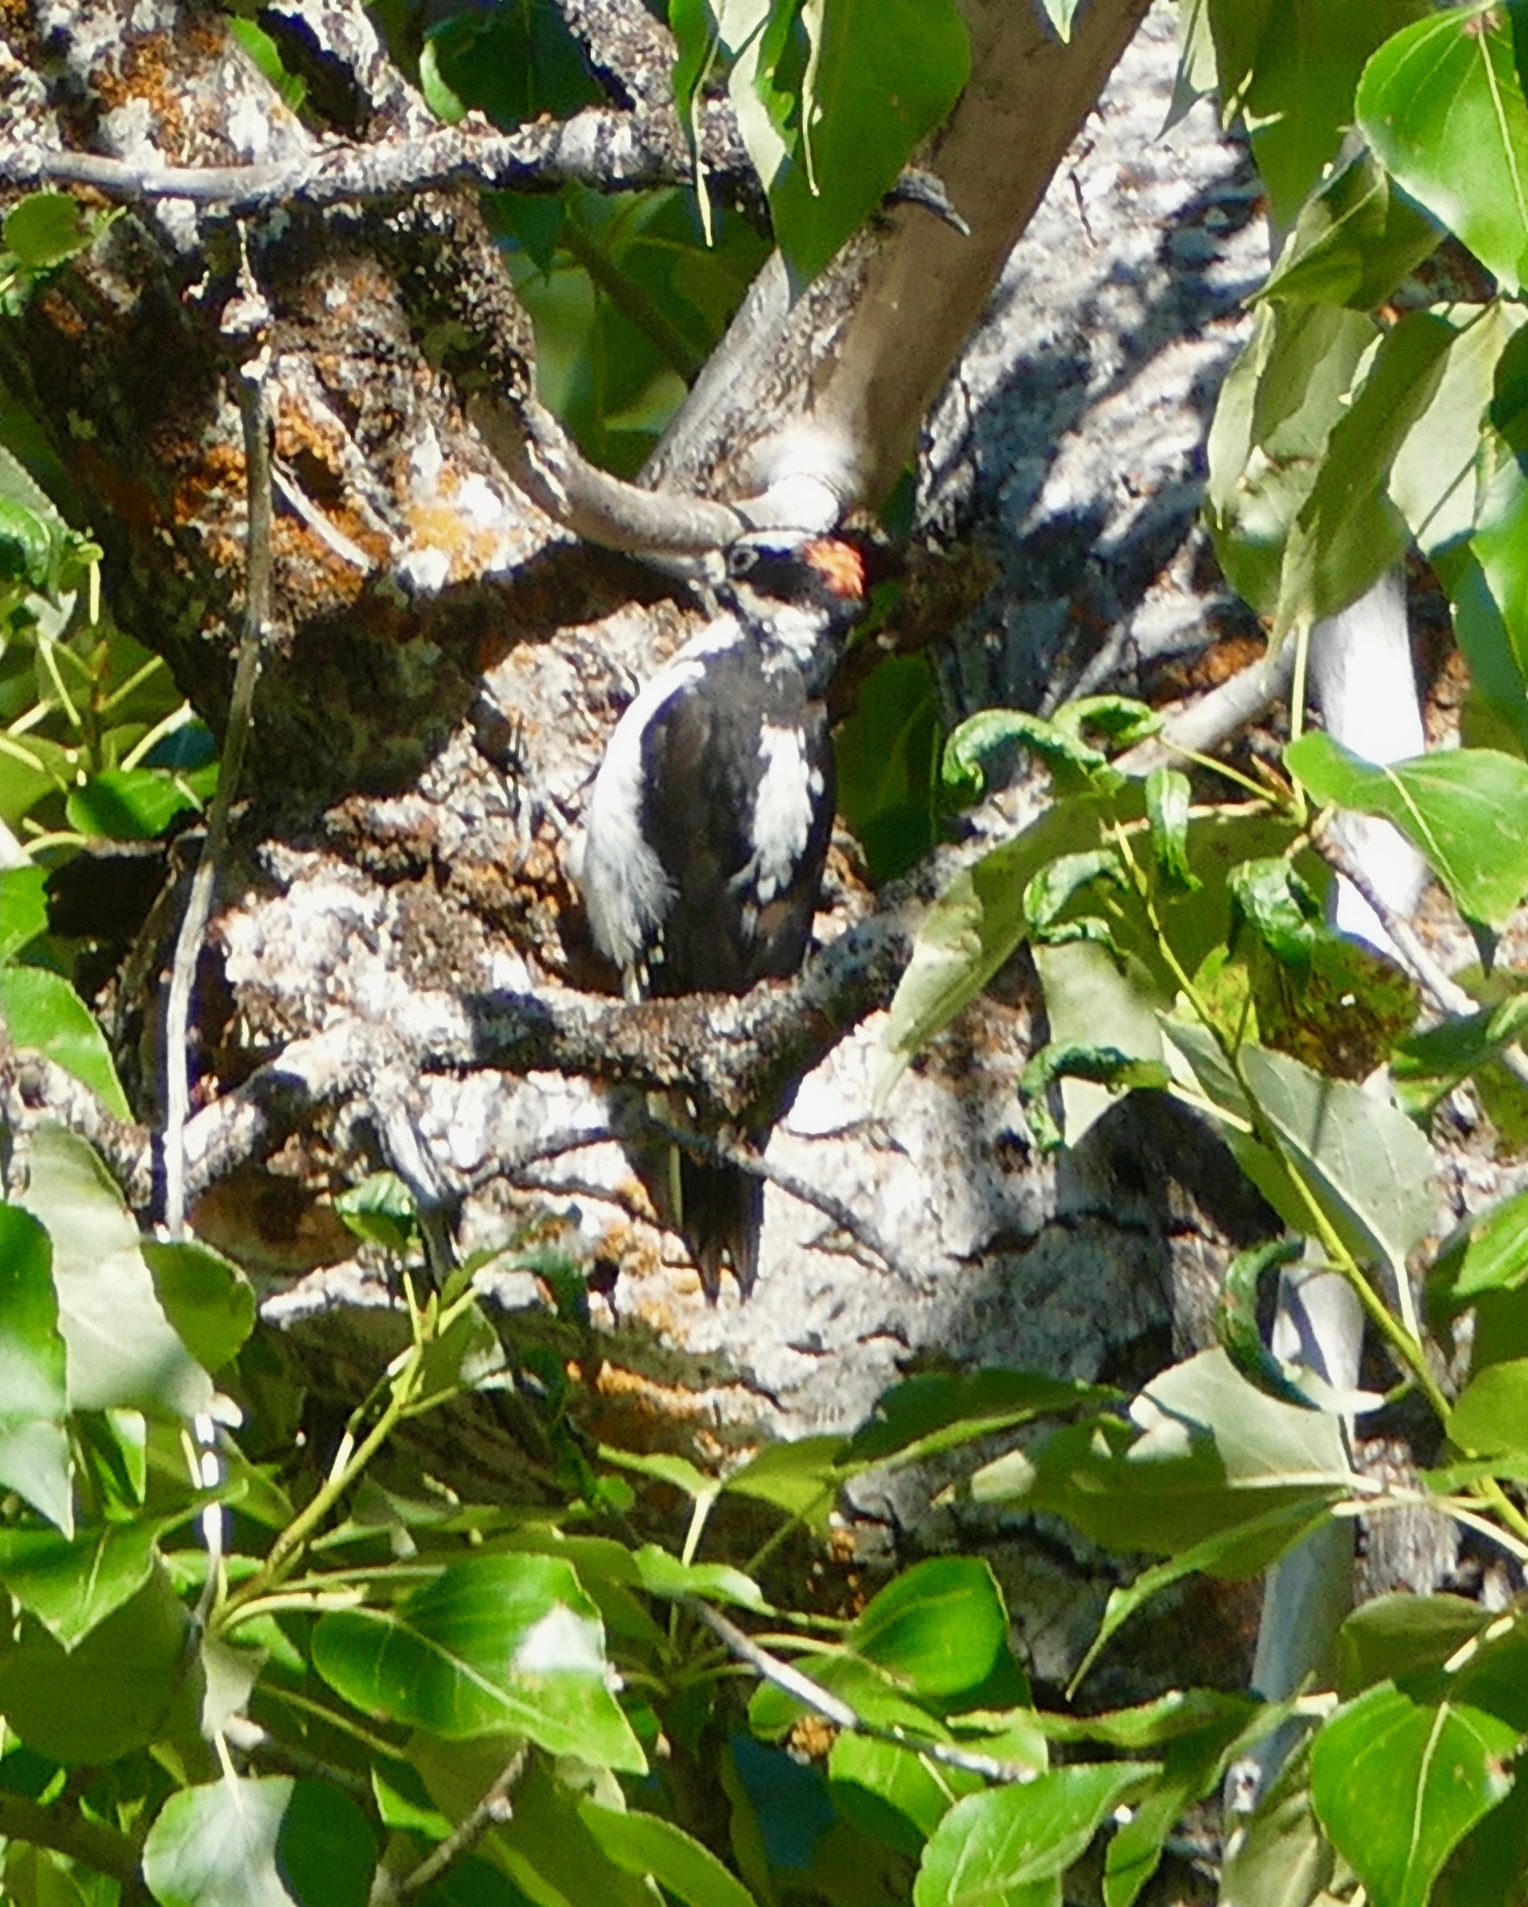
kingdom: Animalia
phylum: Chordata
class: Aves
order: Piciformes
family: Picidae
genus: Leuconotopicus
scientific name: Leuconotopicus villosus
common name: Hairy woodpecker
